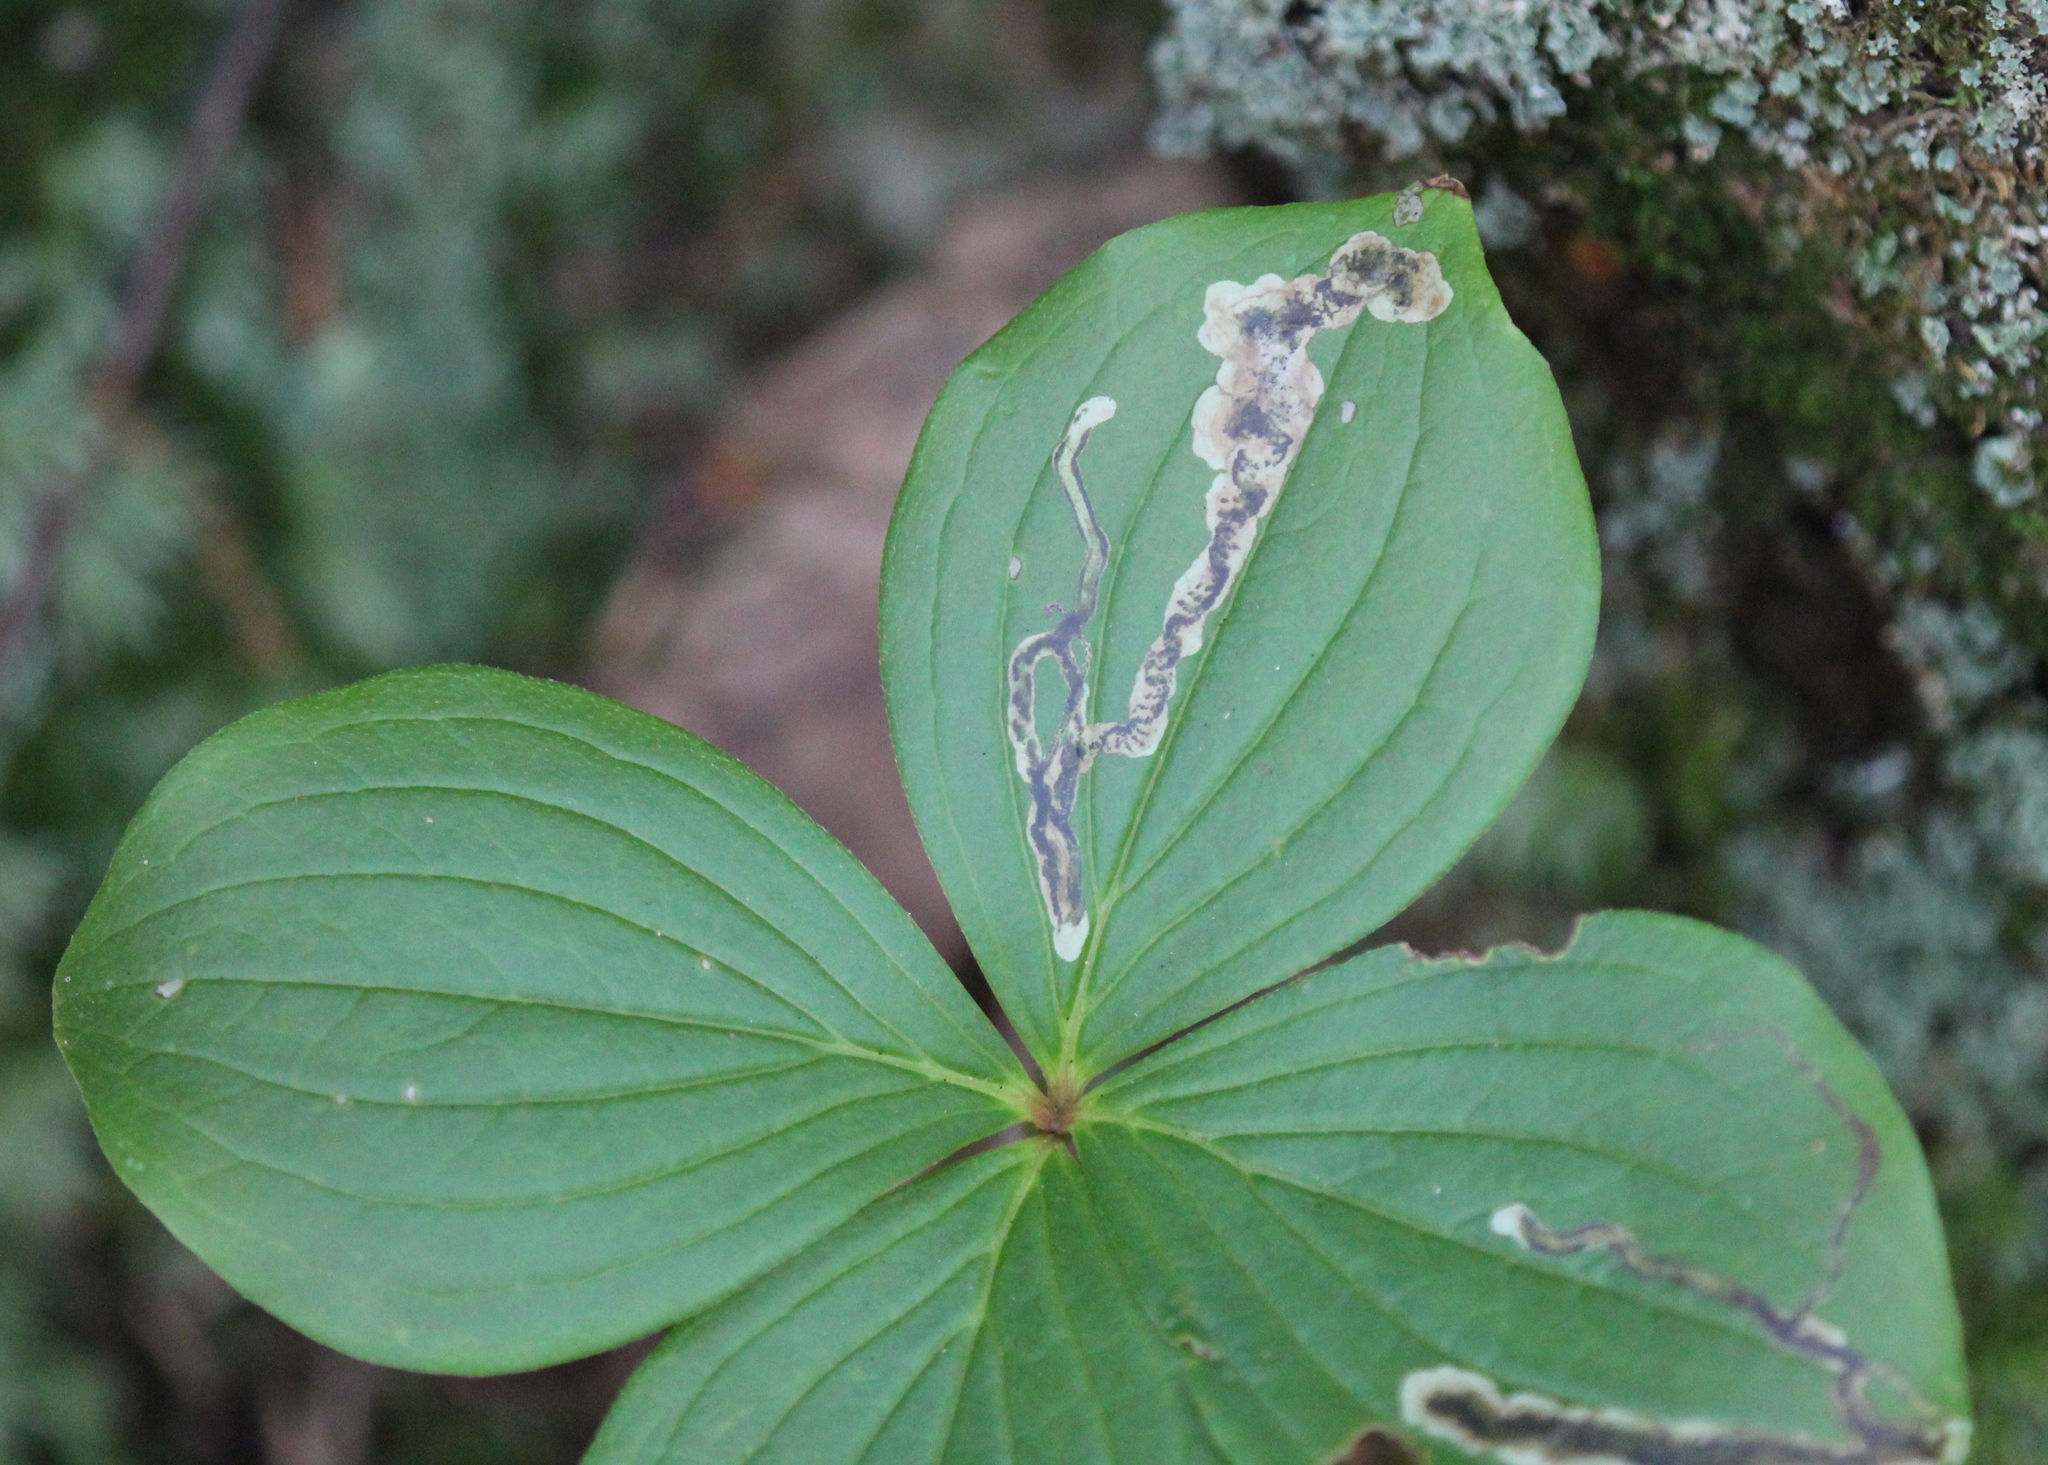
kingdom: Animalia
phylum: Arthropoda
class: Insecta
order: Diptera
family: Agromyzidae
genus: Phytomyza
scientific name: Phytomyza agromyzina
